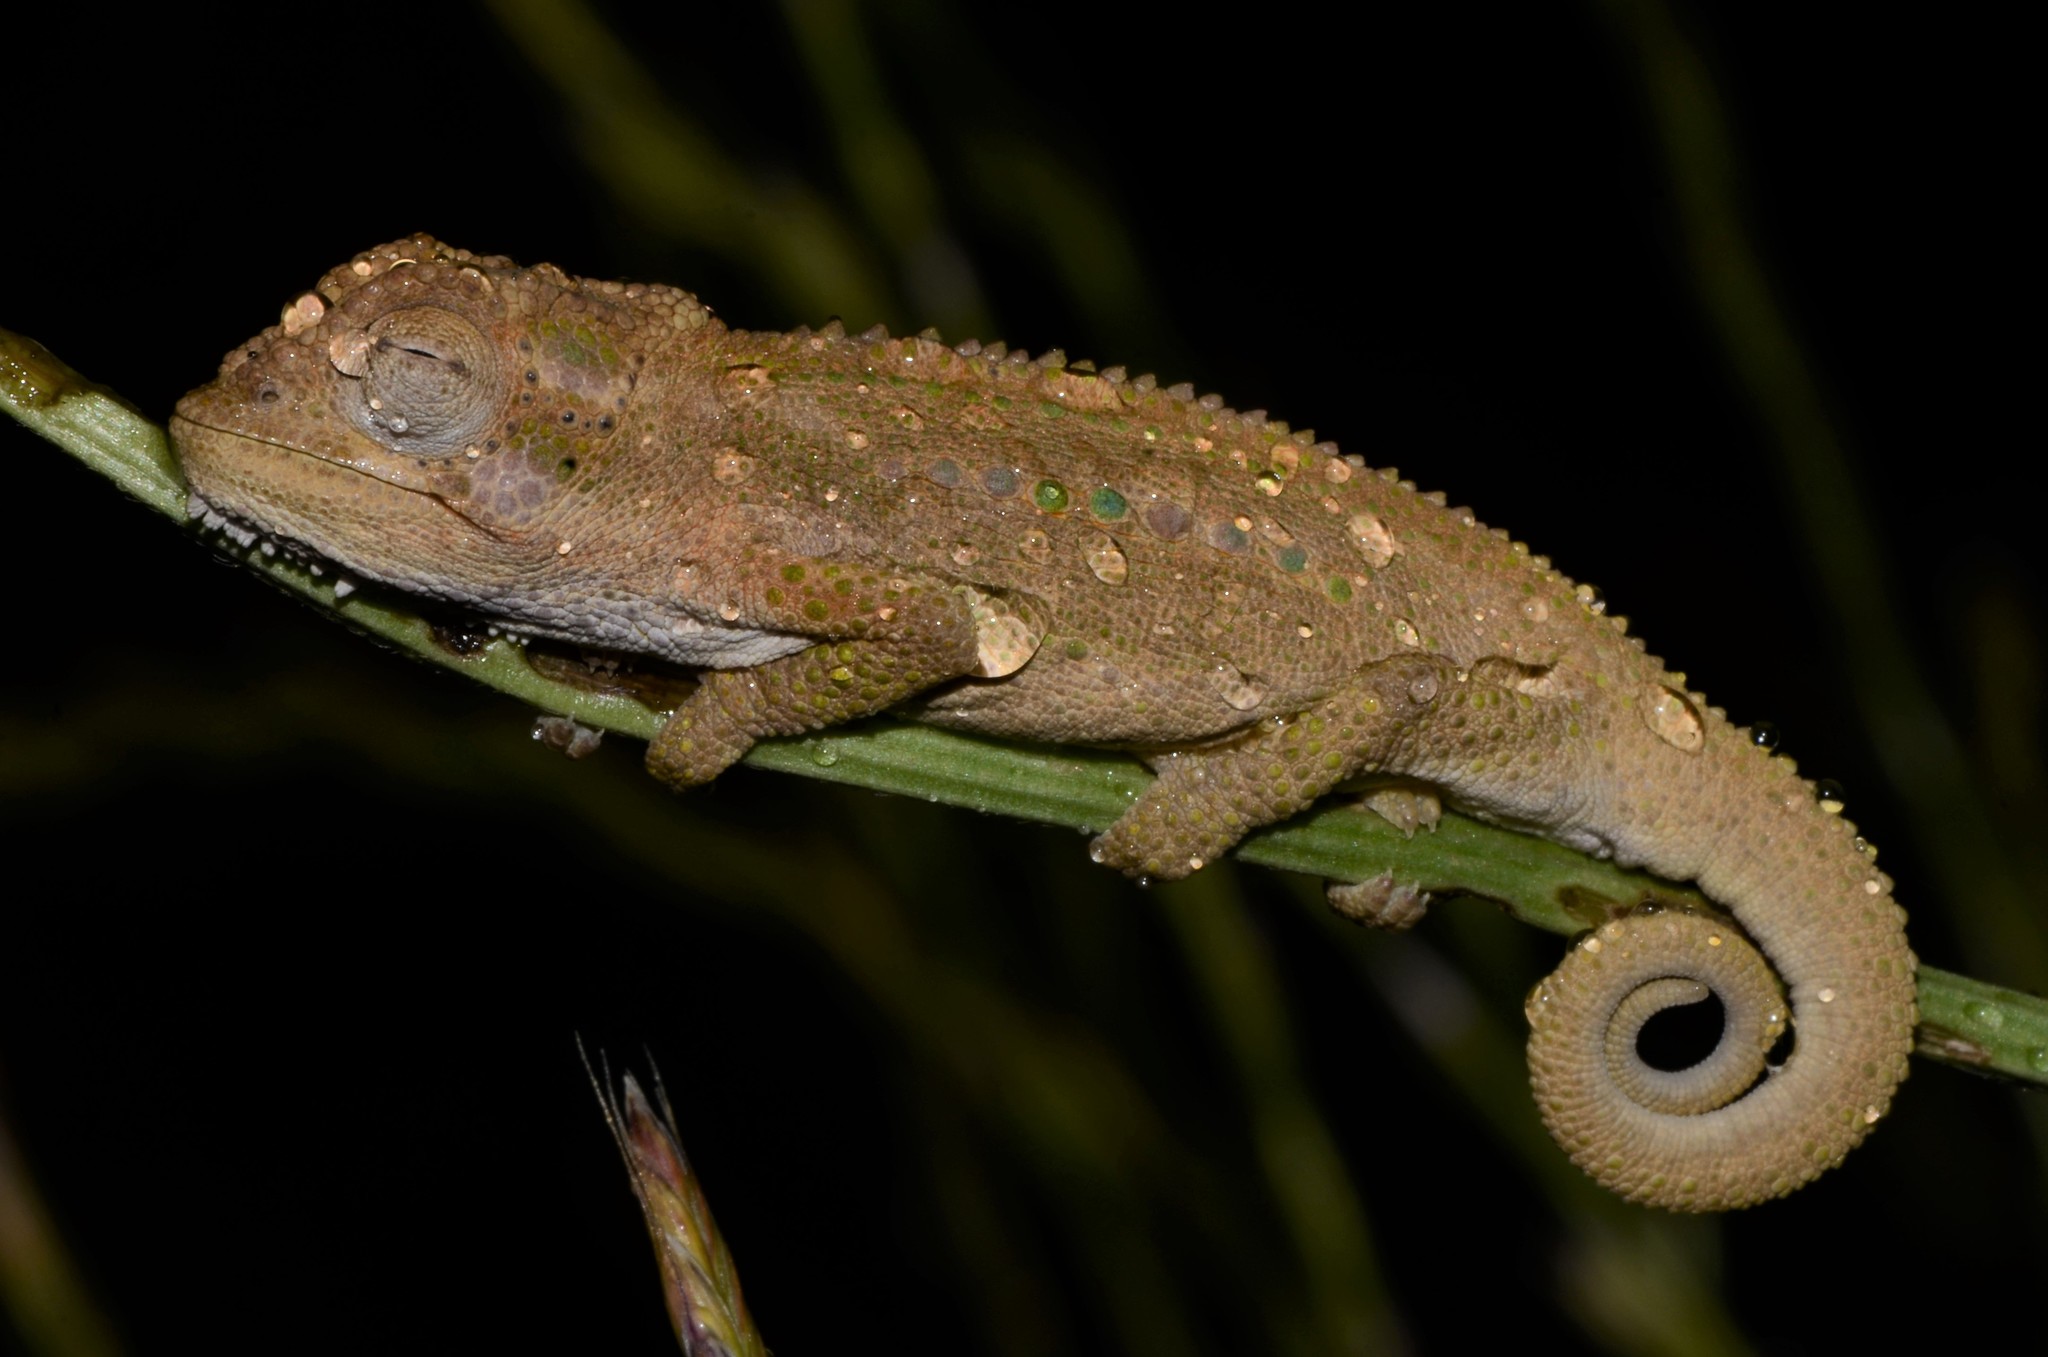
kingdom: Animalia
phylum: Chordata
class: Squamata
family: Chamaeleonidae
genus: Bradypodion
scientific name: Bradypodion pumilum
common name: Cape dwarf chameleon
